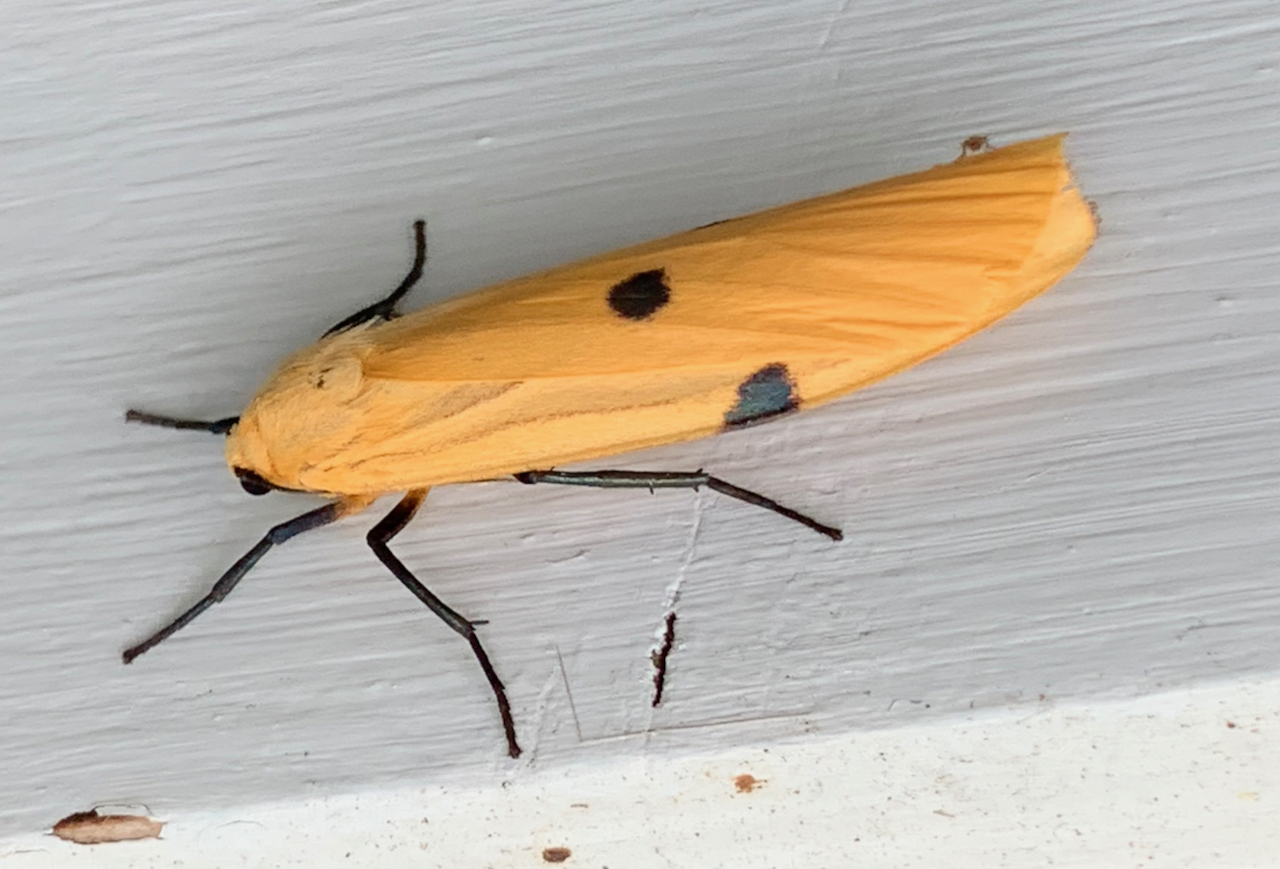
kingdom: Animalia
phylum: Arthropoda
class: Insecta
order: Lepidoptera
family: Erebidae
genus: Lithosia
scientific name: Lithosia quadra
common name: Four-spotted footman
